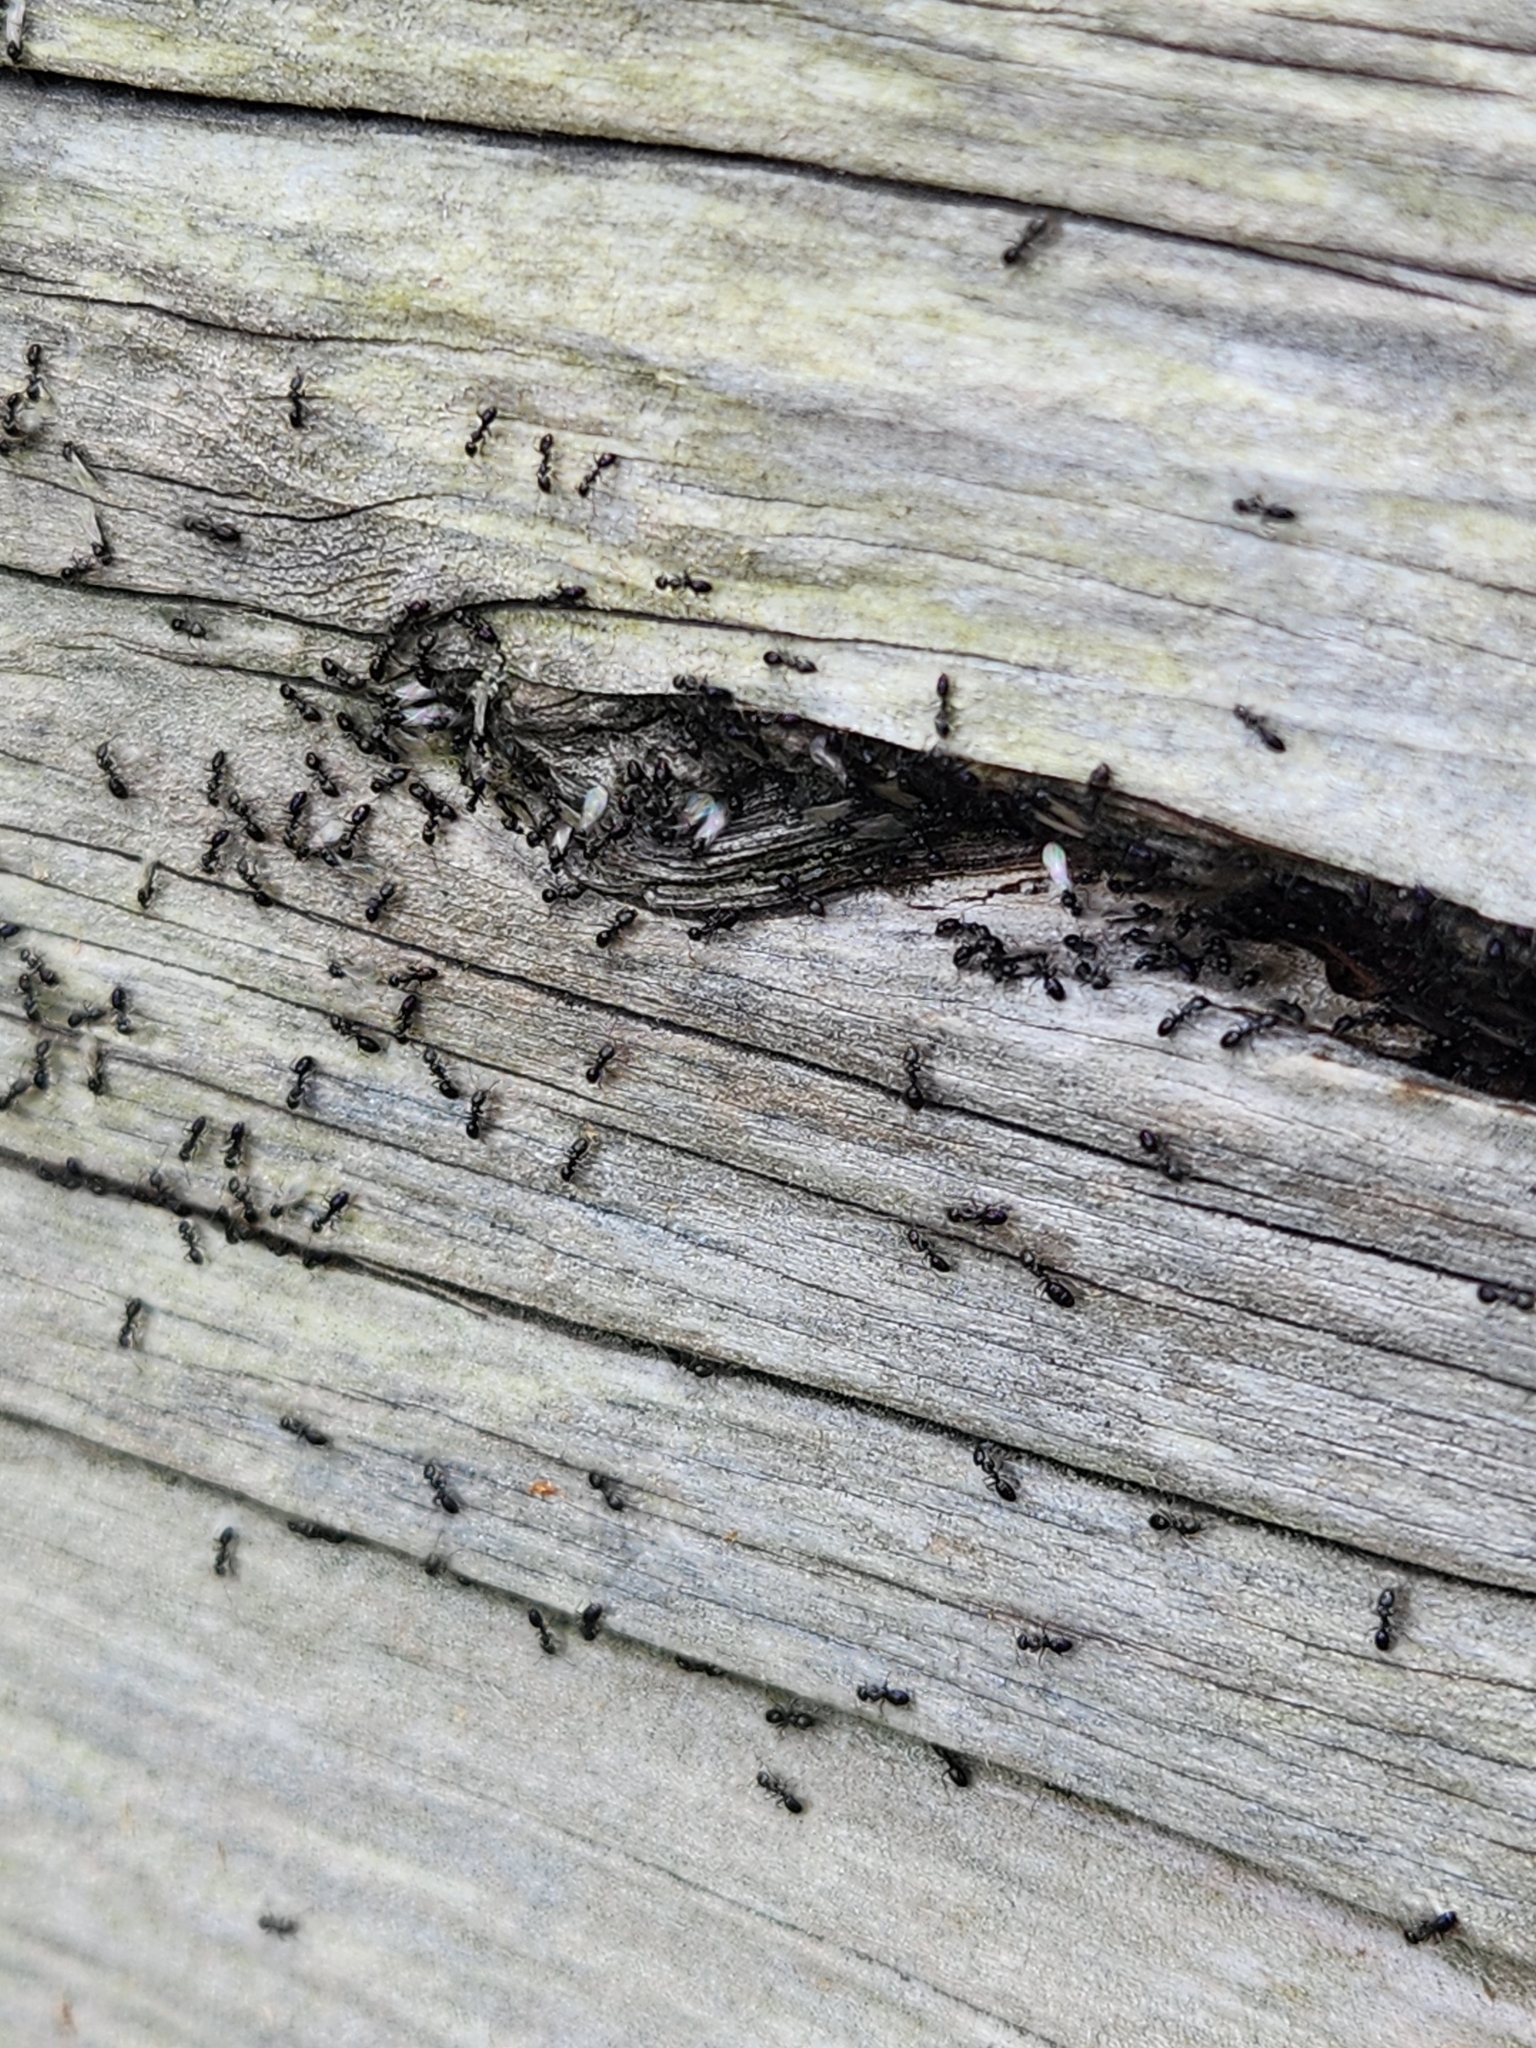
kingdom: Animalia
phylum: Arthropoda
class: Insecta
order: Hymenoptera
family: Formicidae
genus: Ochetellus
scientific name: Ochetellus glaber
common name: Ant
